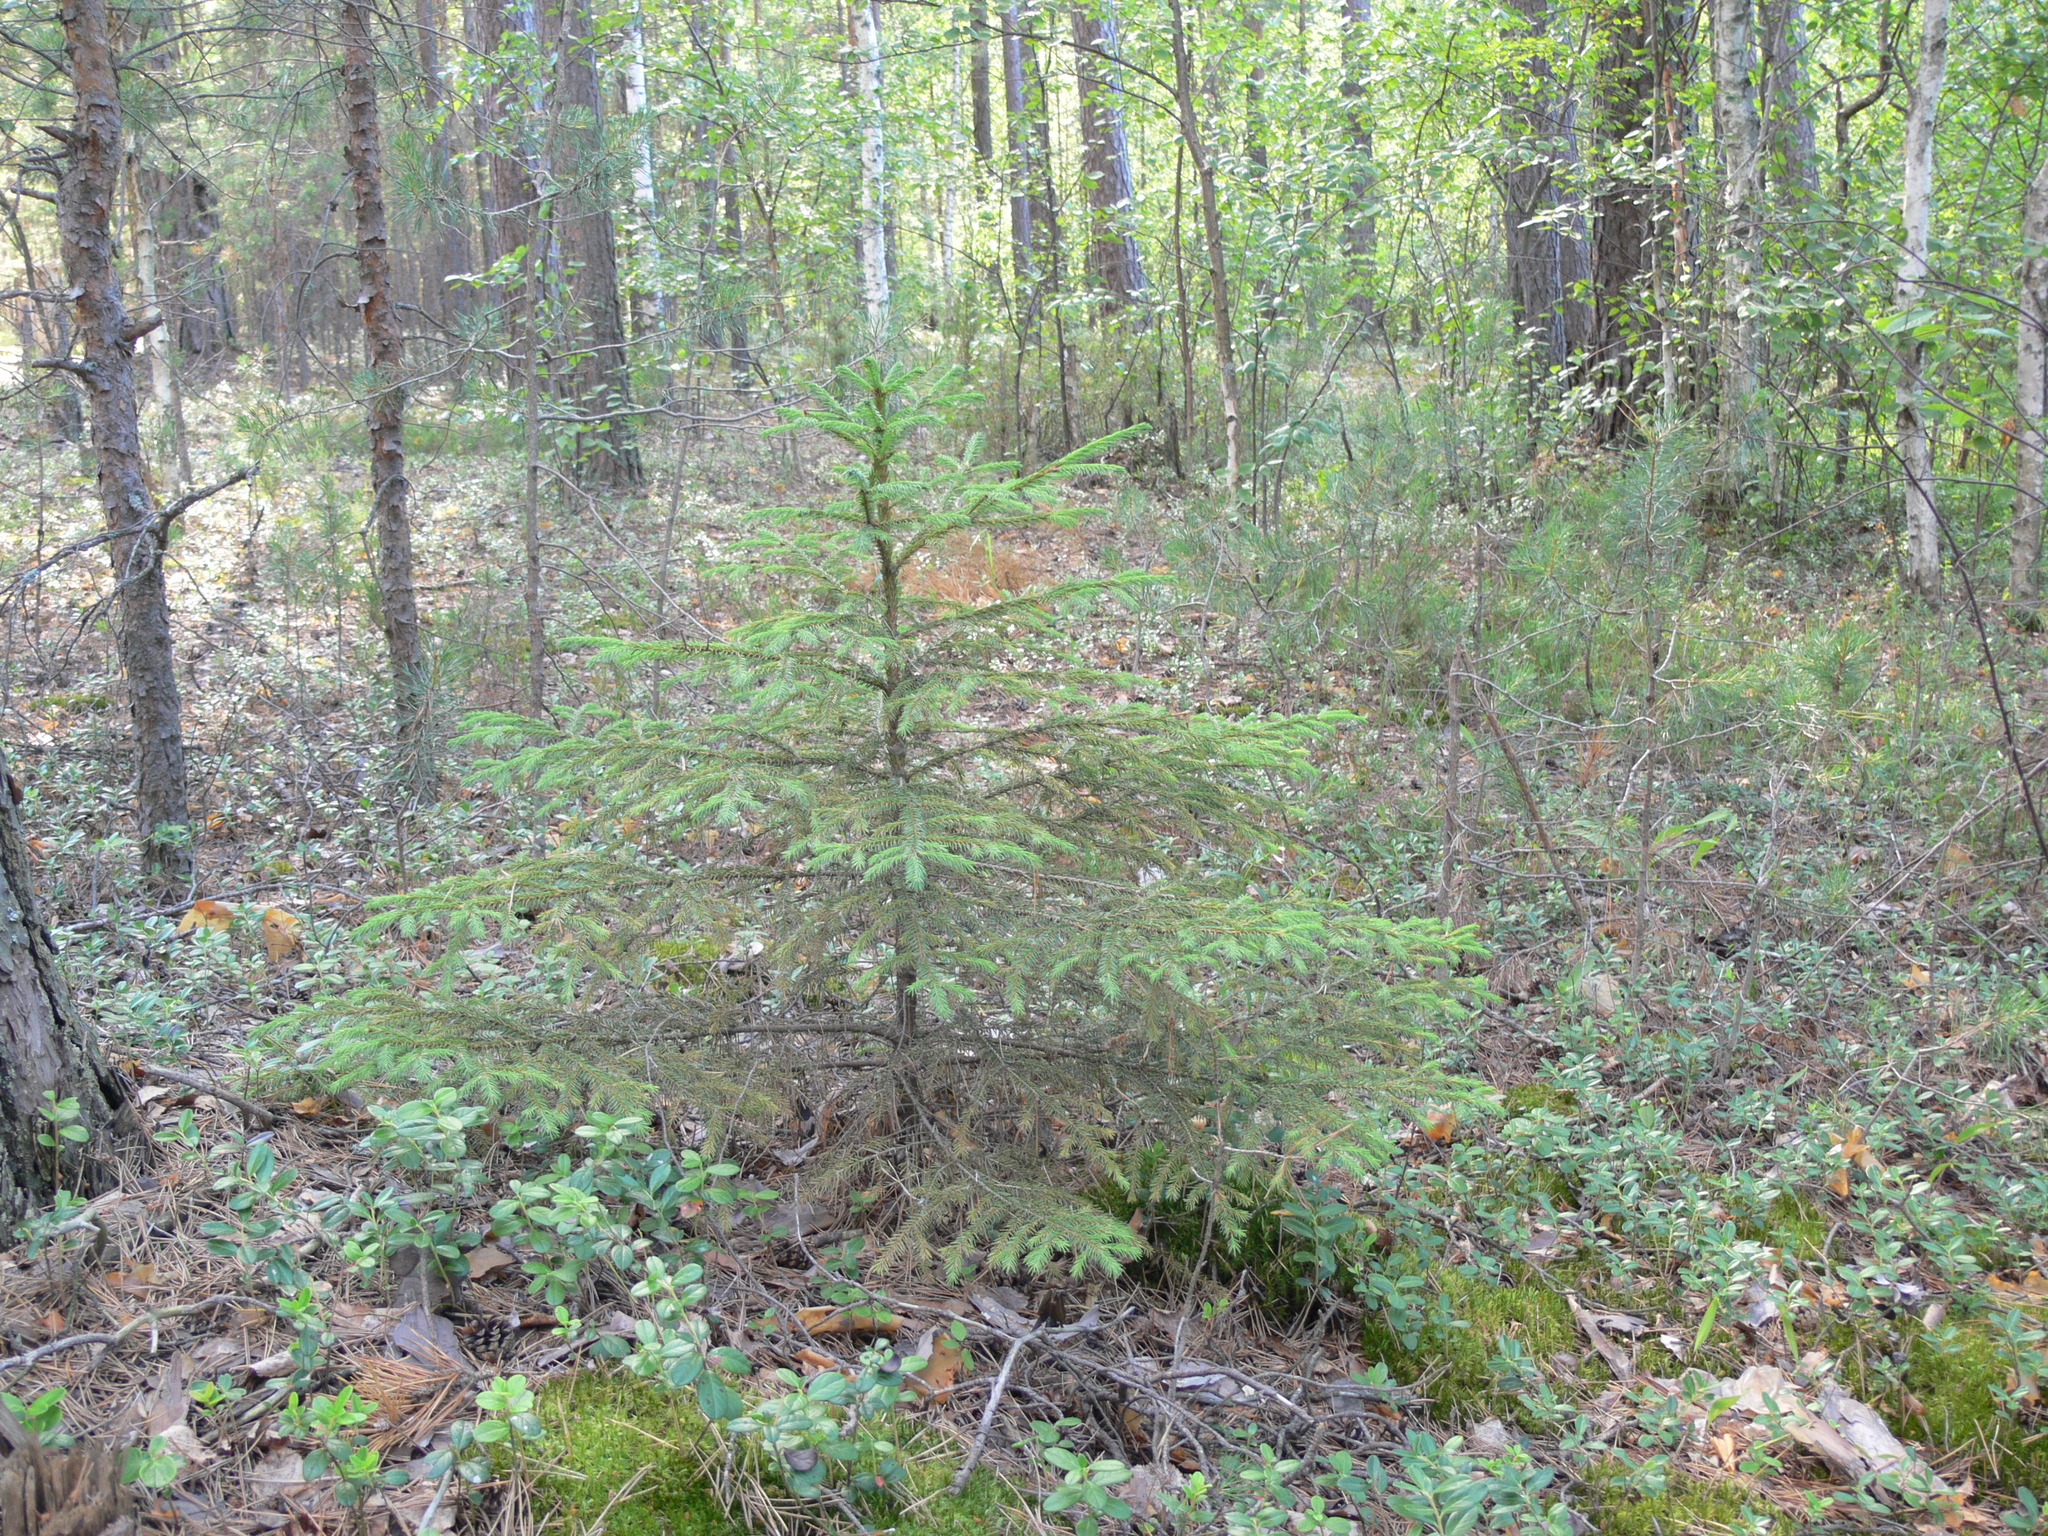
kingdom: Plantae
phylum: Tracheophyta
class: Pinopsida
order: Pinales
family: Pinaceae
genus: Picea
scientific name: Picea abies
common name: Norway spruce
